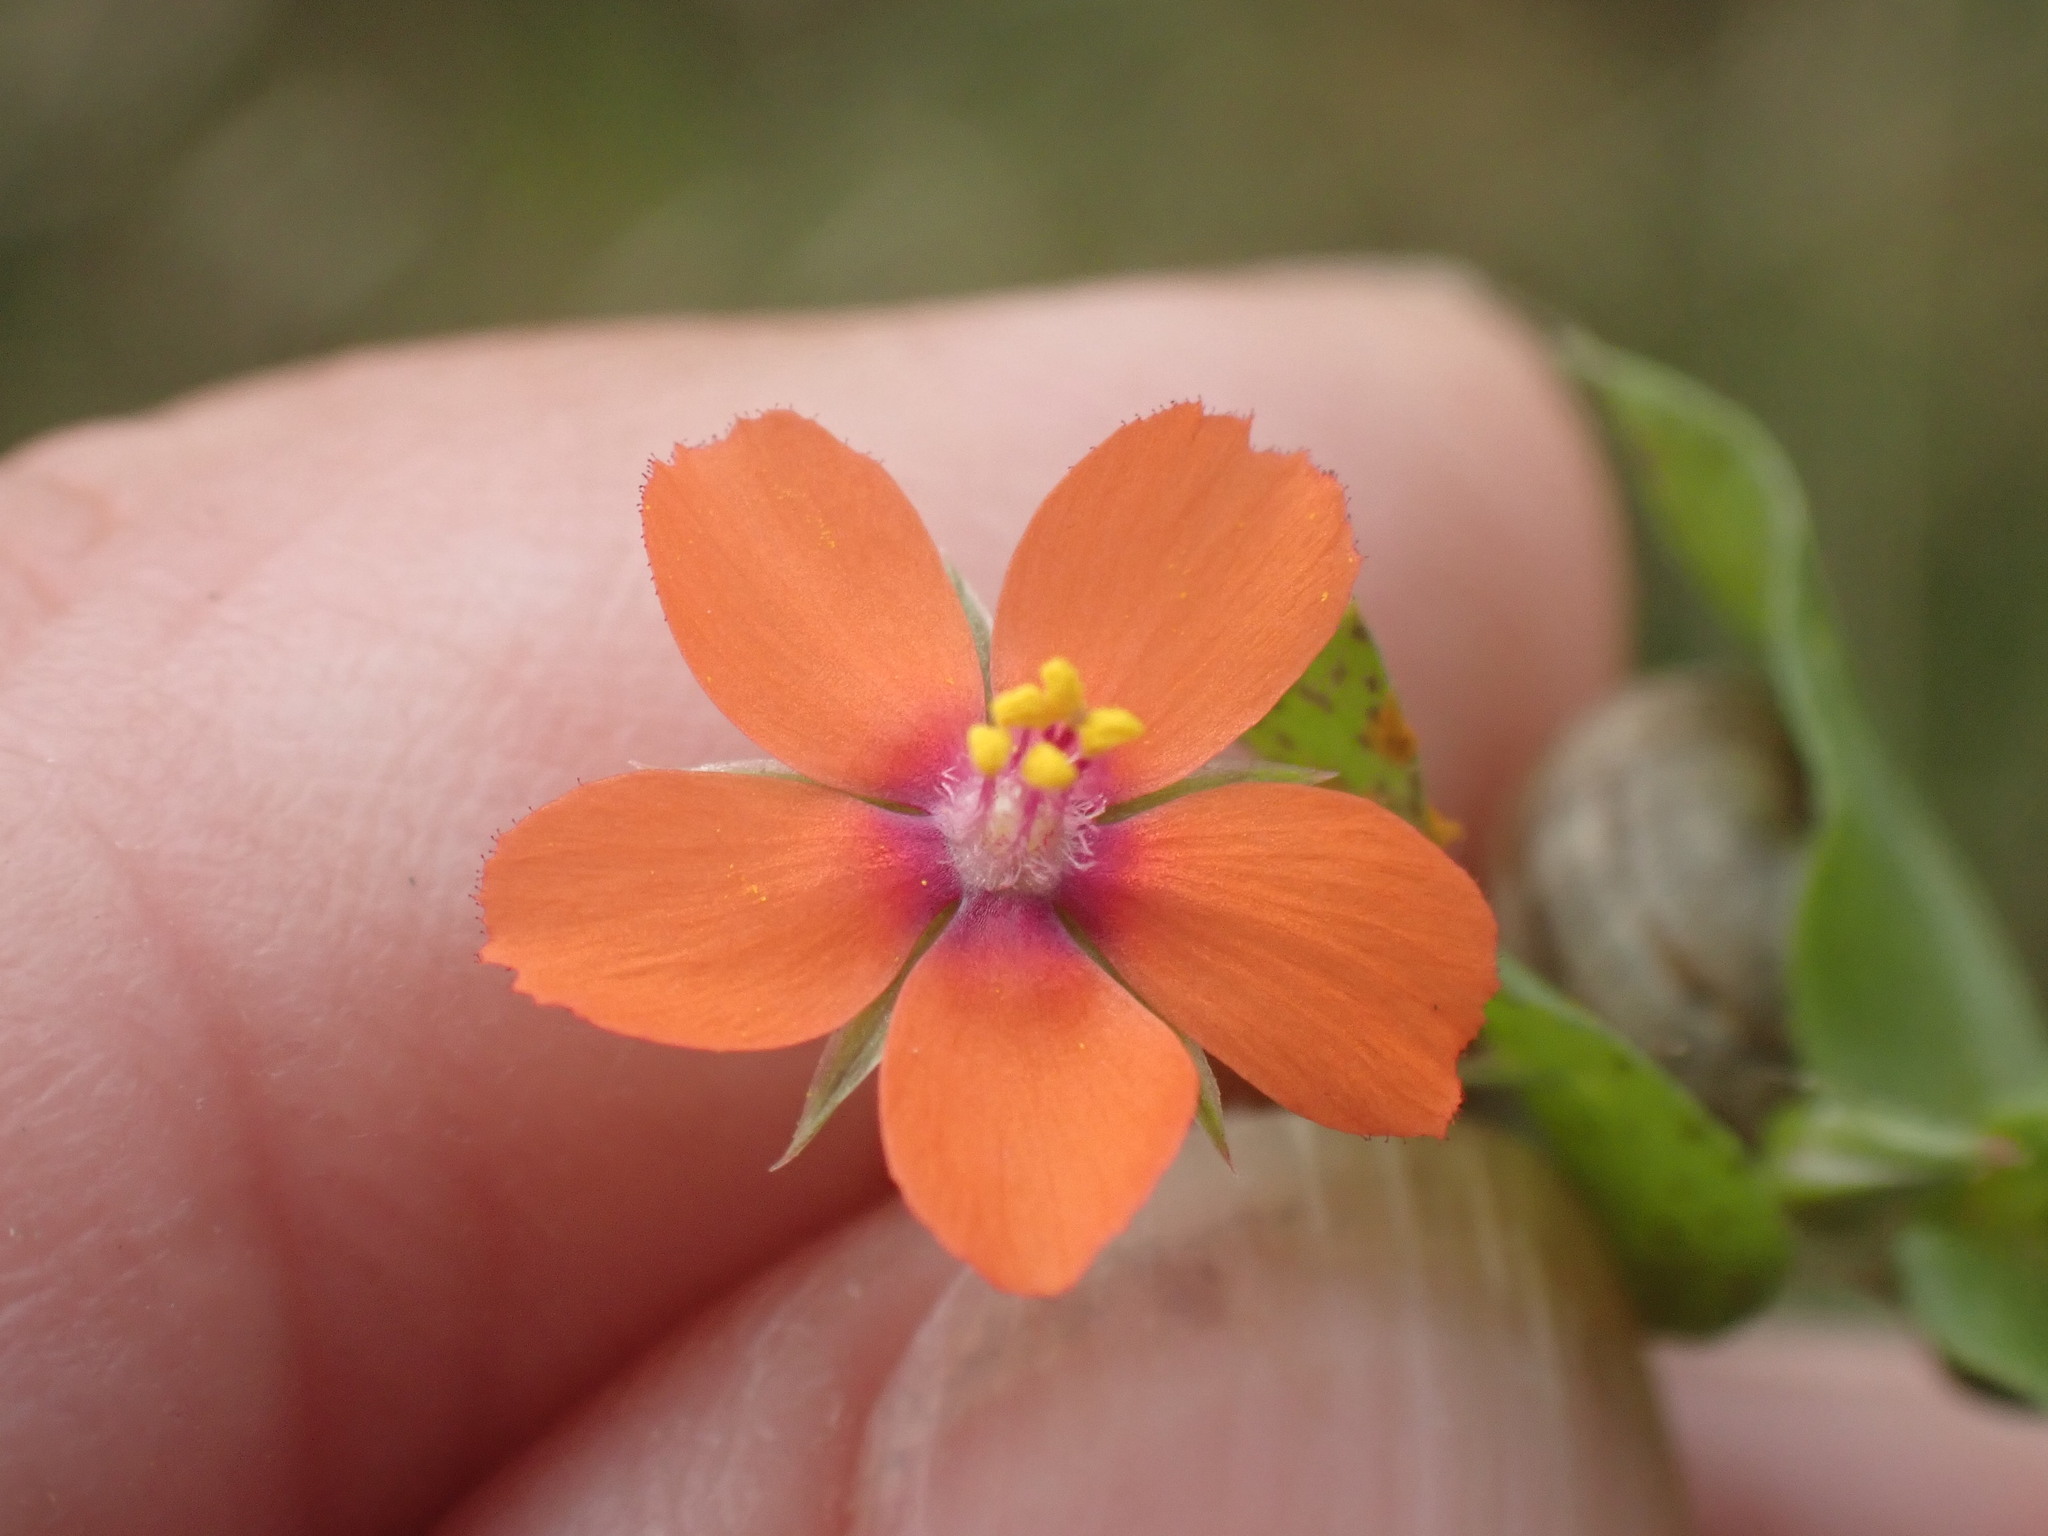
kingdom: Plantae
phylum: Tracheophyta
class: Magnoliopsida
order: Ericales
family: Primulaceae
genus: Lysimachia
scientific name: Lysimachia arvensis
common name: Scarlet pimpernel
